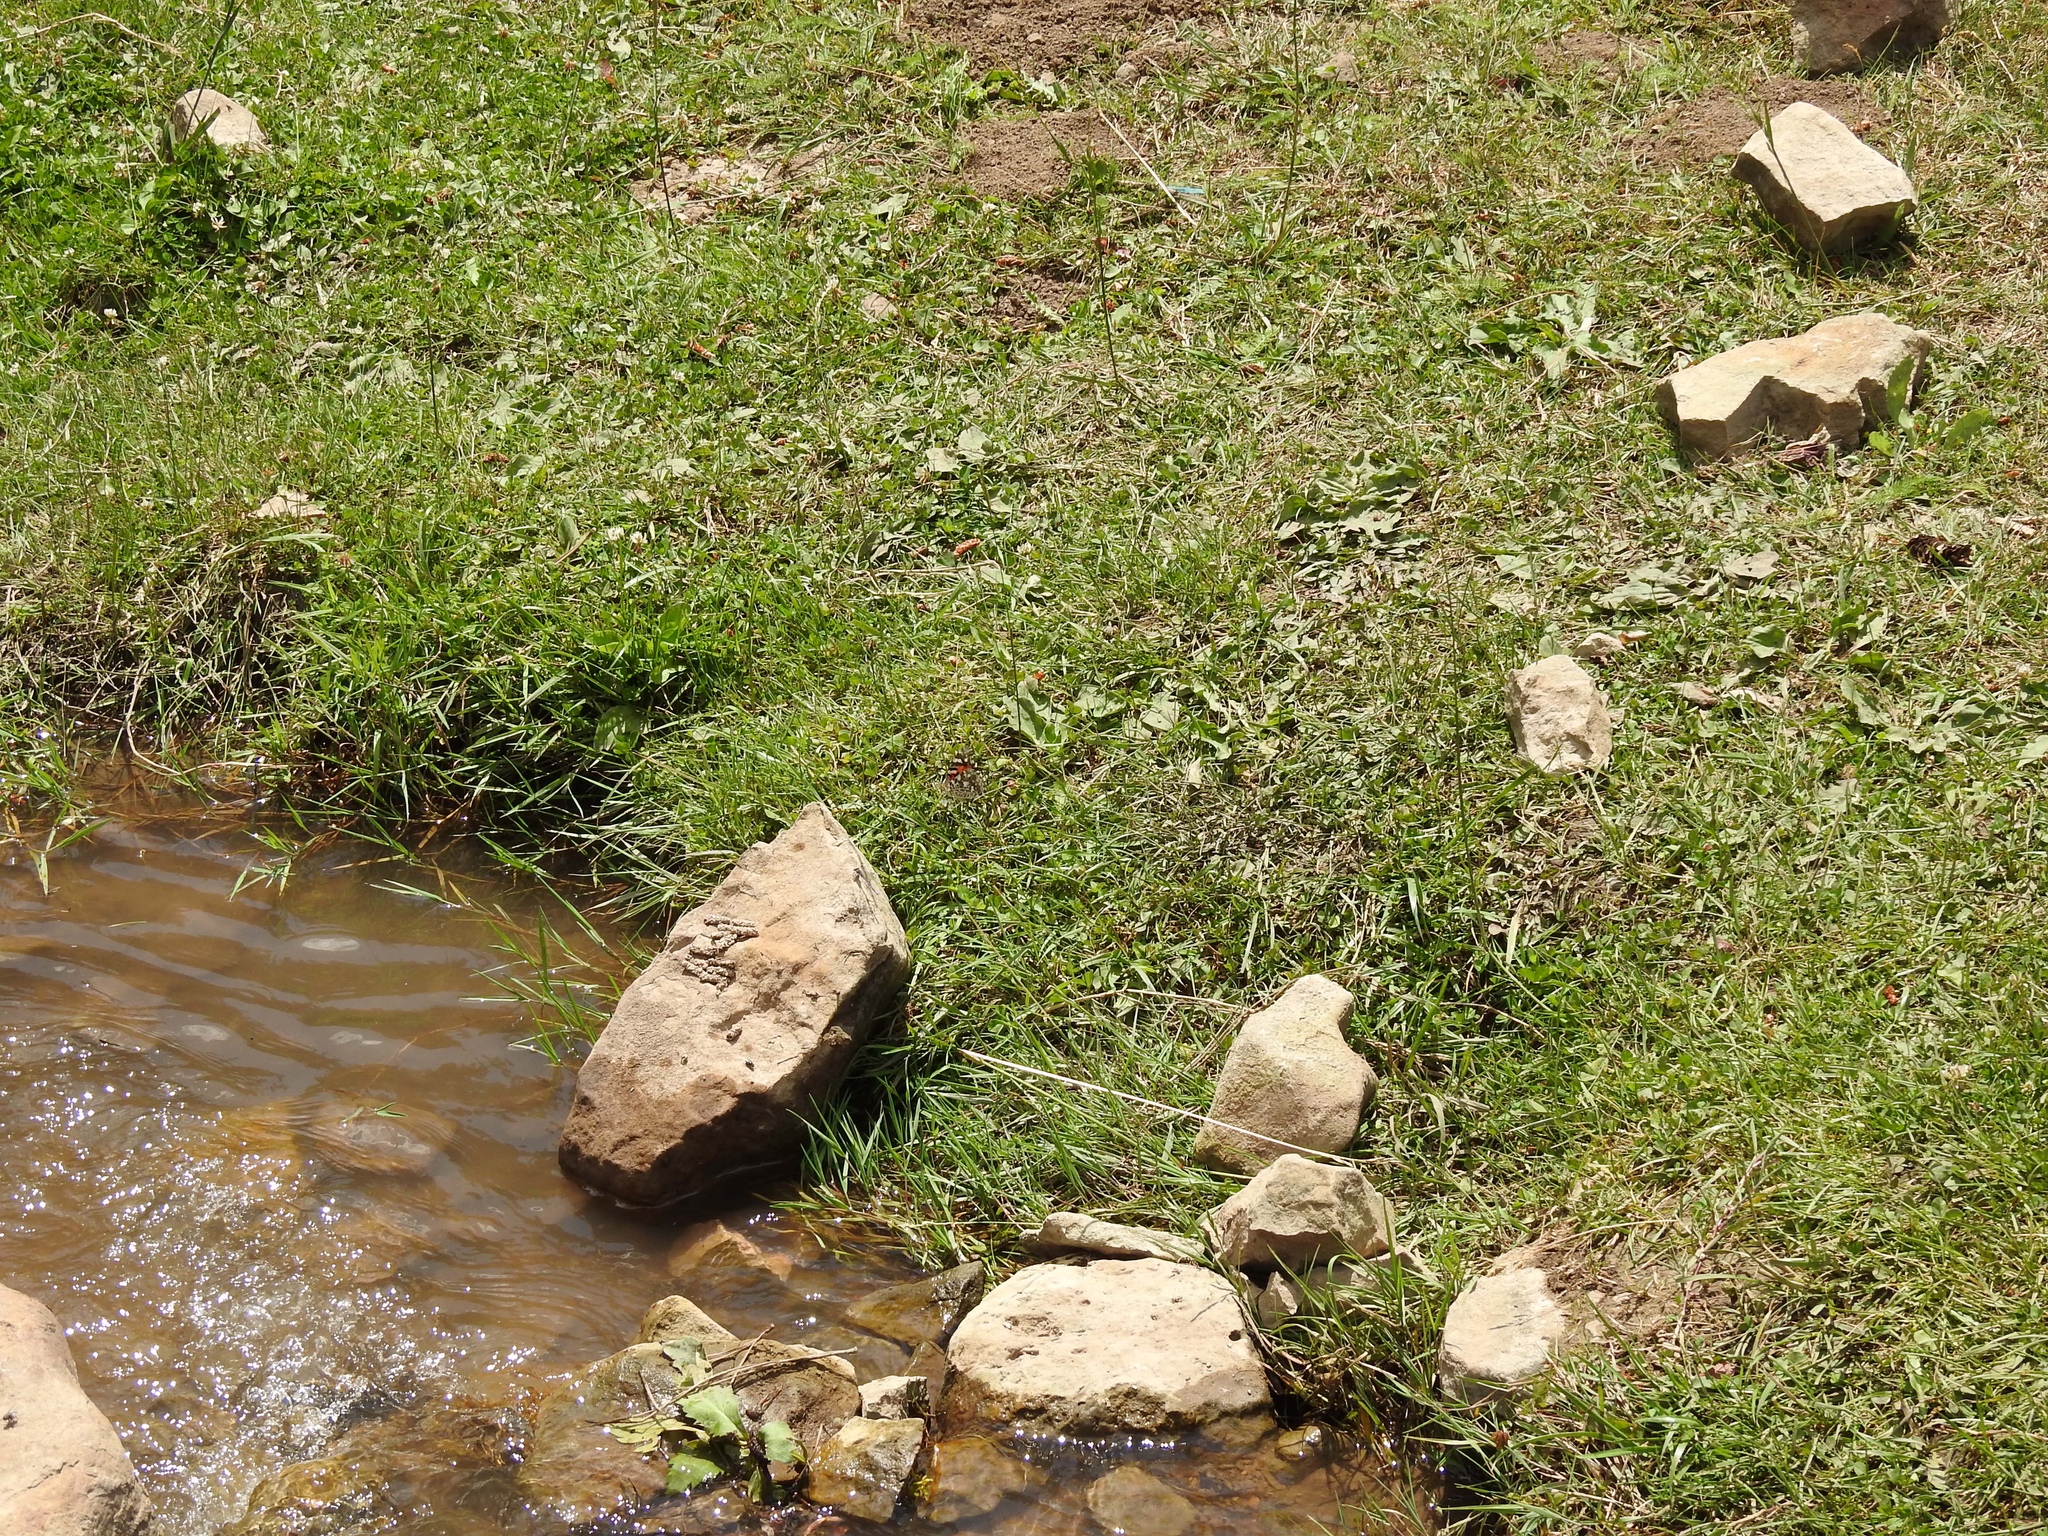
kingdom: Animalia
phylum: Arthropoda
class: Insecta
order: Lepidoptera
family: Nymphalidae
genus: Vanessa
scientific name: Vanessa cardui
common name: Painted lady
